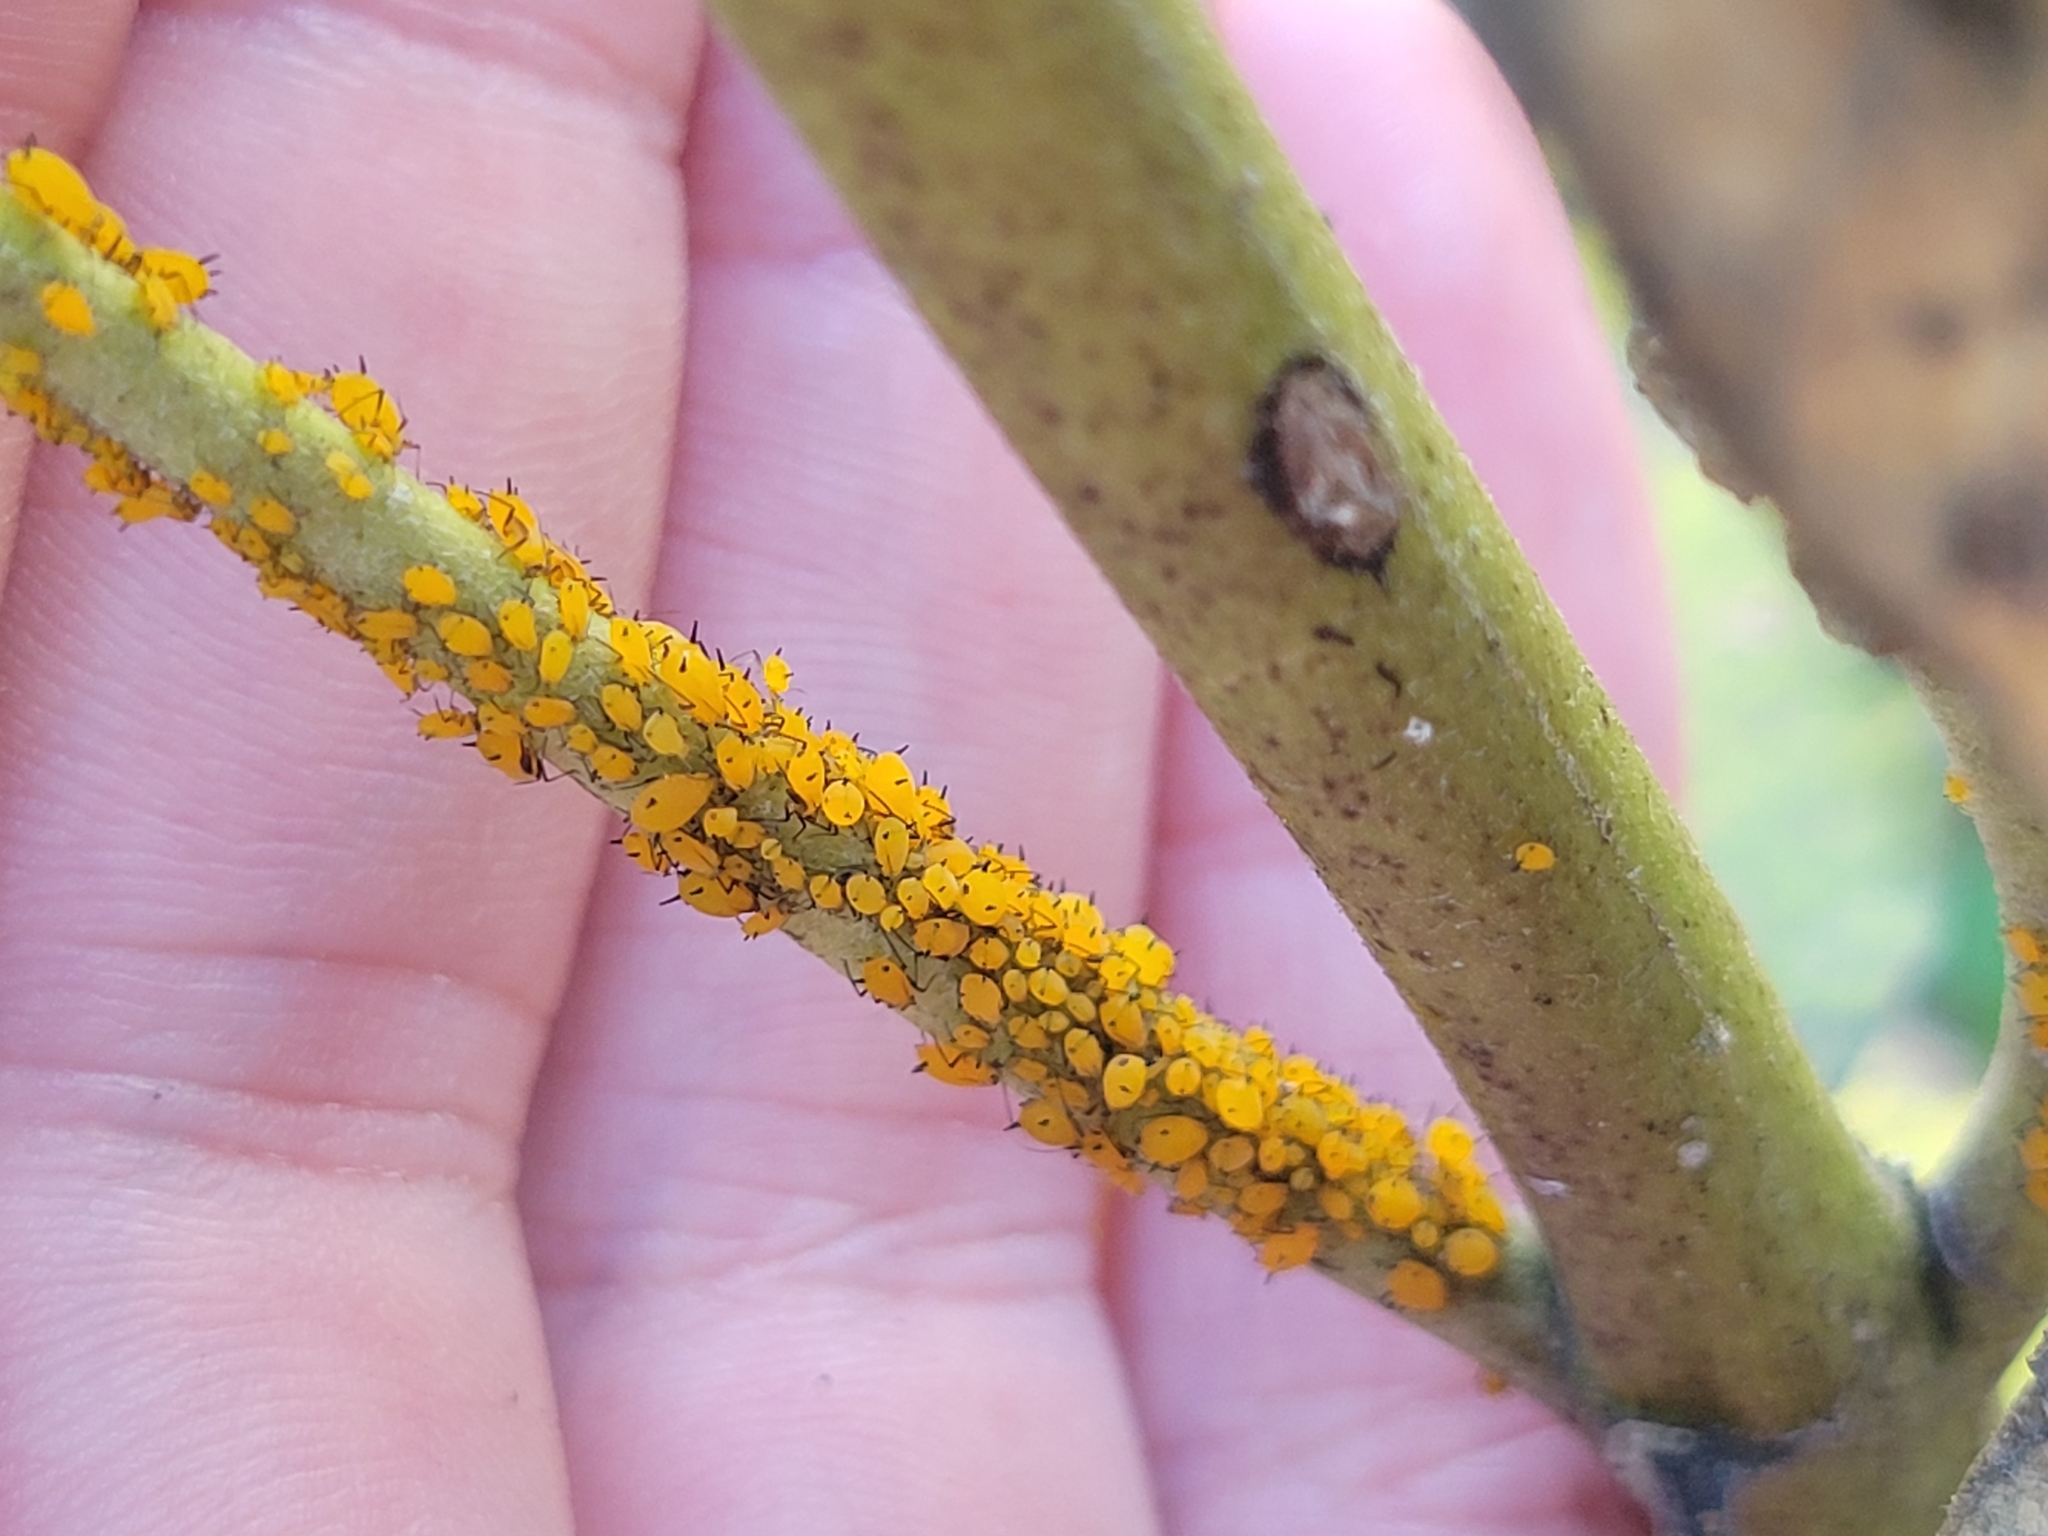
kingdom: Animalia
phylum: Arthropoda
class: Insecta
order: Hemiptera
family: Aphididae
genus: Aphis
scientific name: Aphis nerii
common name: Oleander aphid
